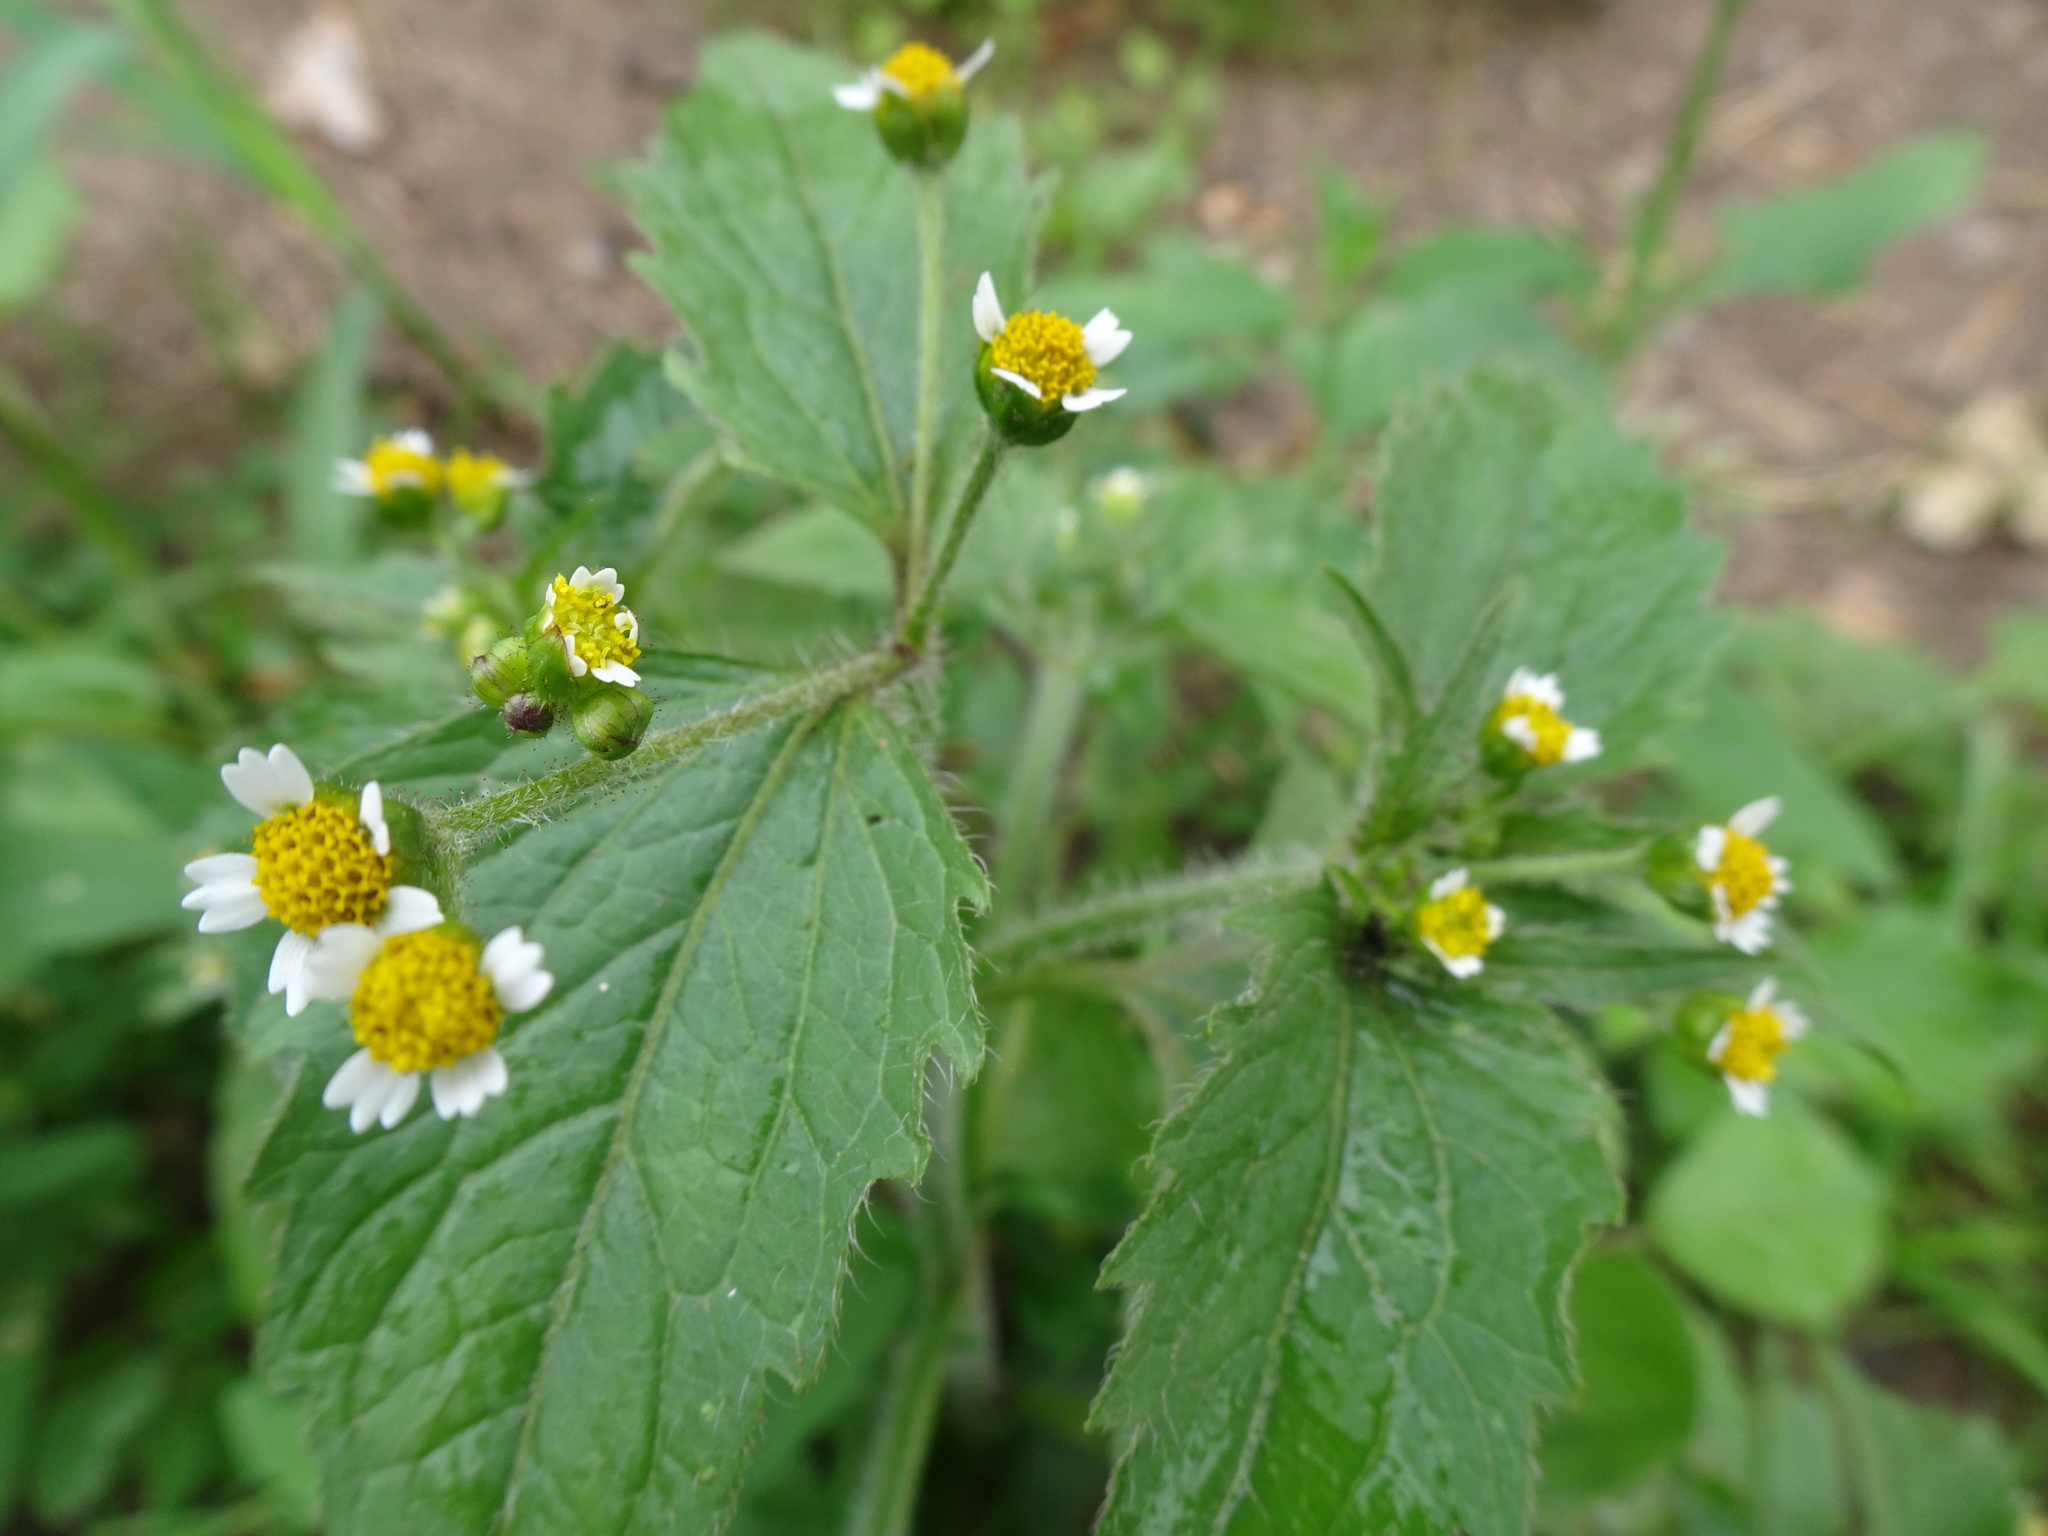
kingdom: Plantae
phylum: Tracheophyta
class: Magnoliopsida
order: Asterales
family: Asteraceae
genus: Galinsoga
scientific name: Galinsoga quadriradiata
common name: Shaggy soldier
